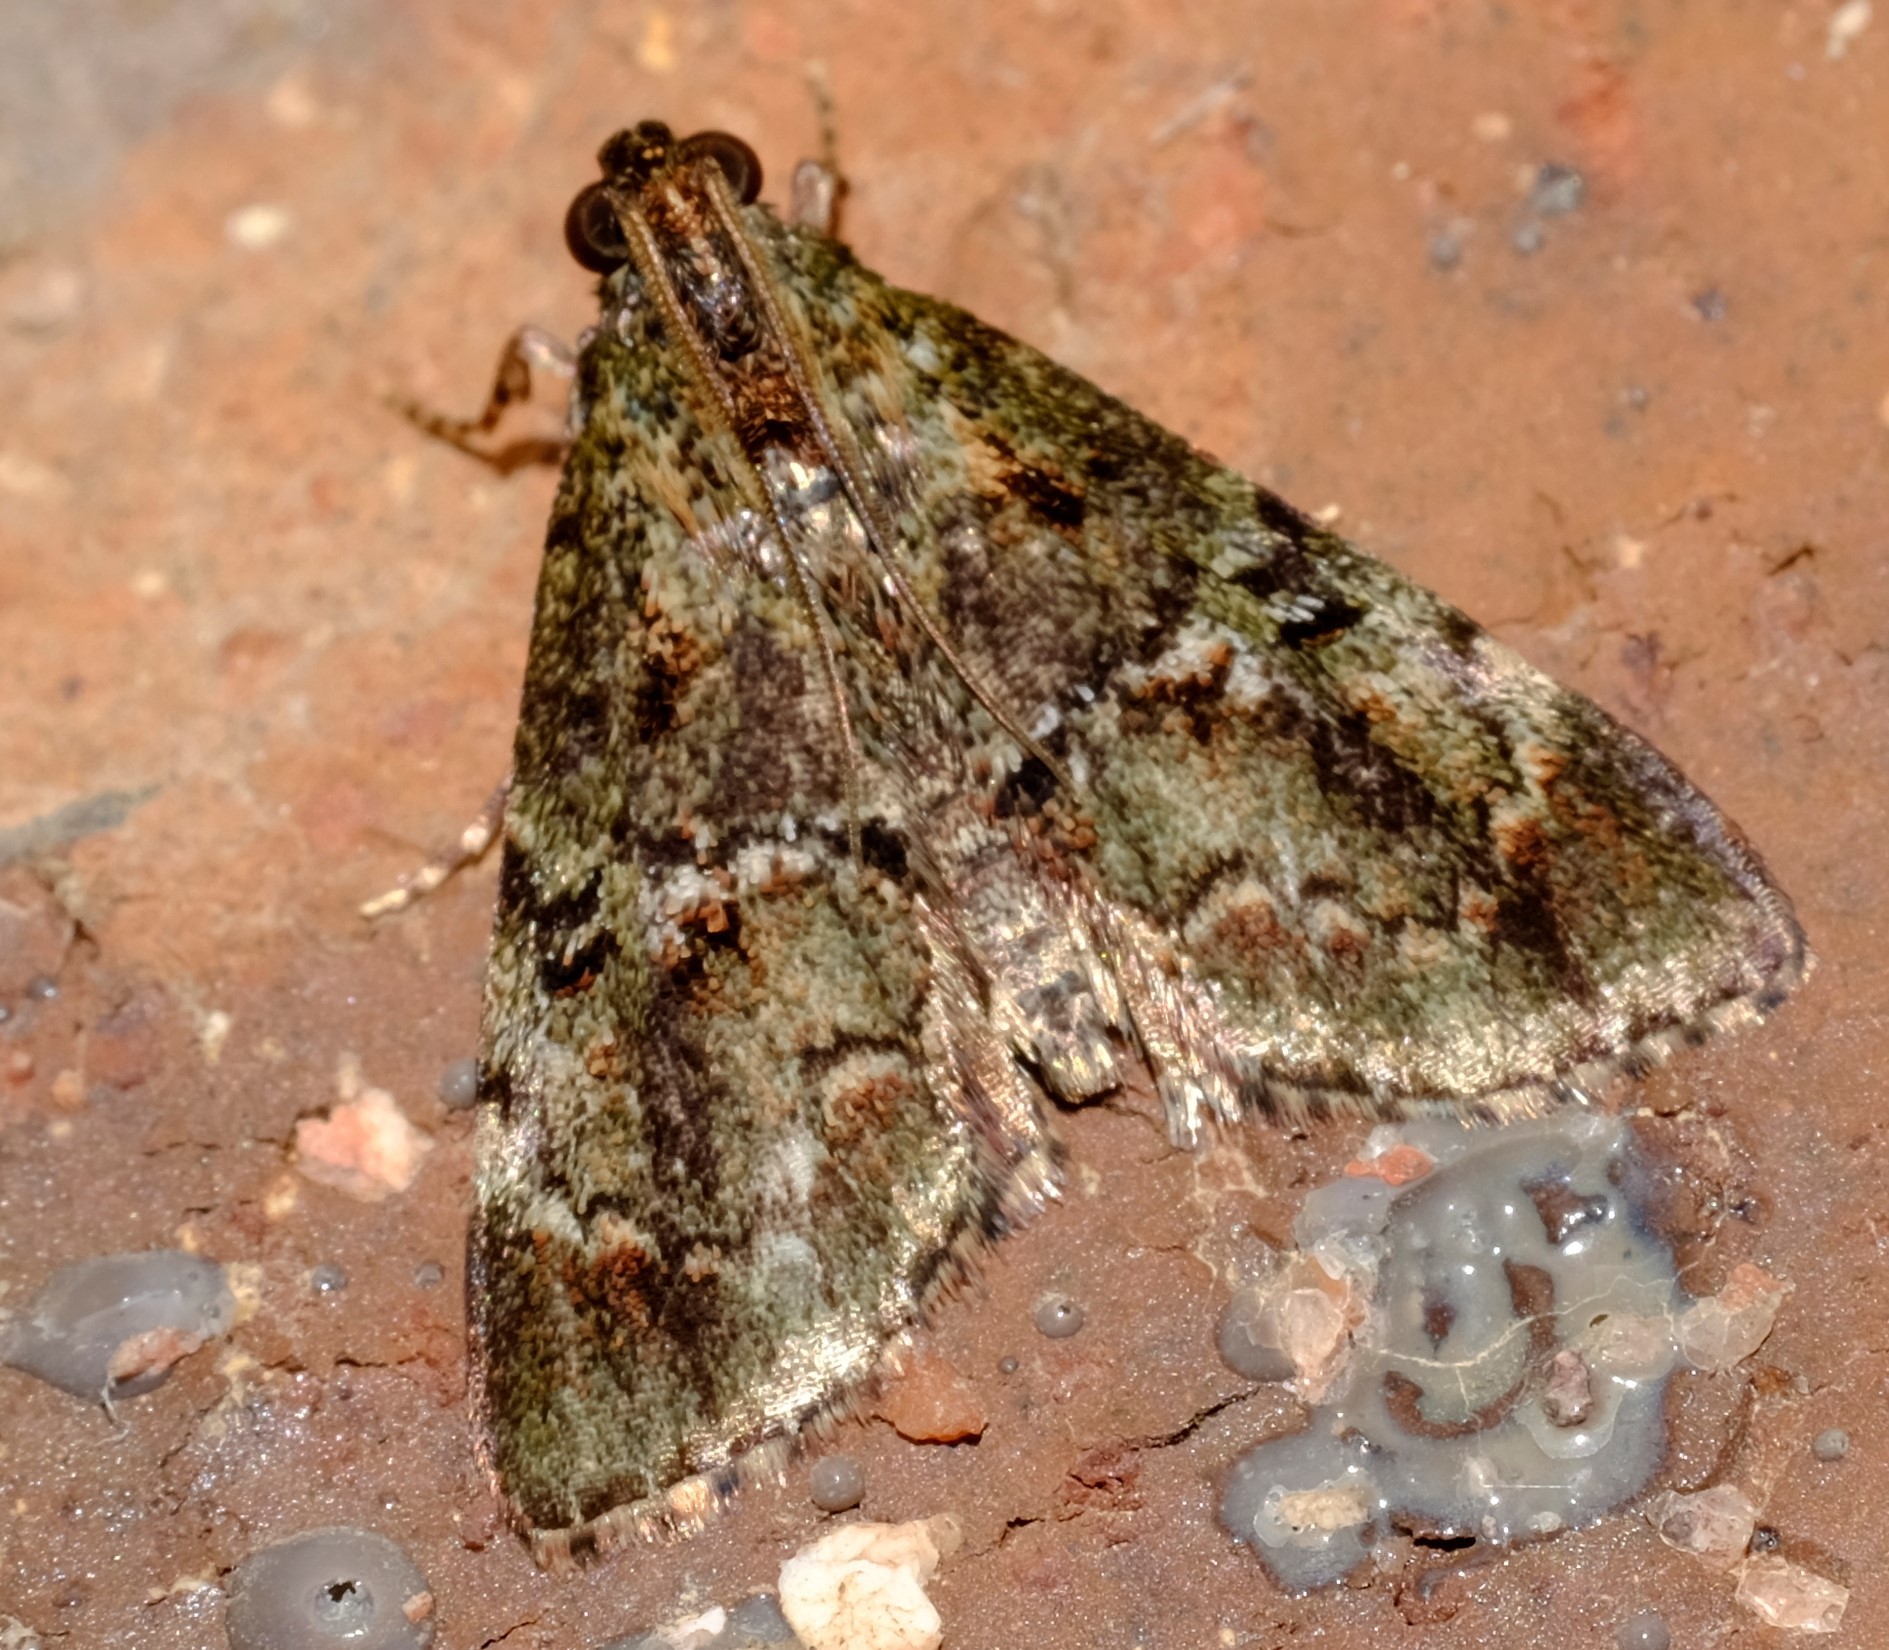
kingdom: Animalia
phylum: Arthropoda
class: Insecta
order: Lepidoptera
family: Pyralidae
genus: Orthaga
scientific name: Orthaga thyrisalis
